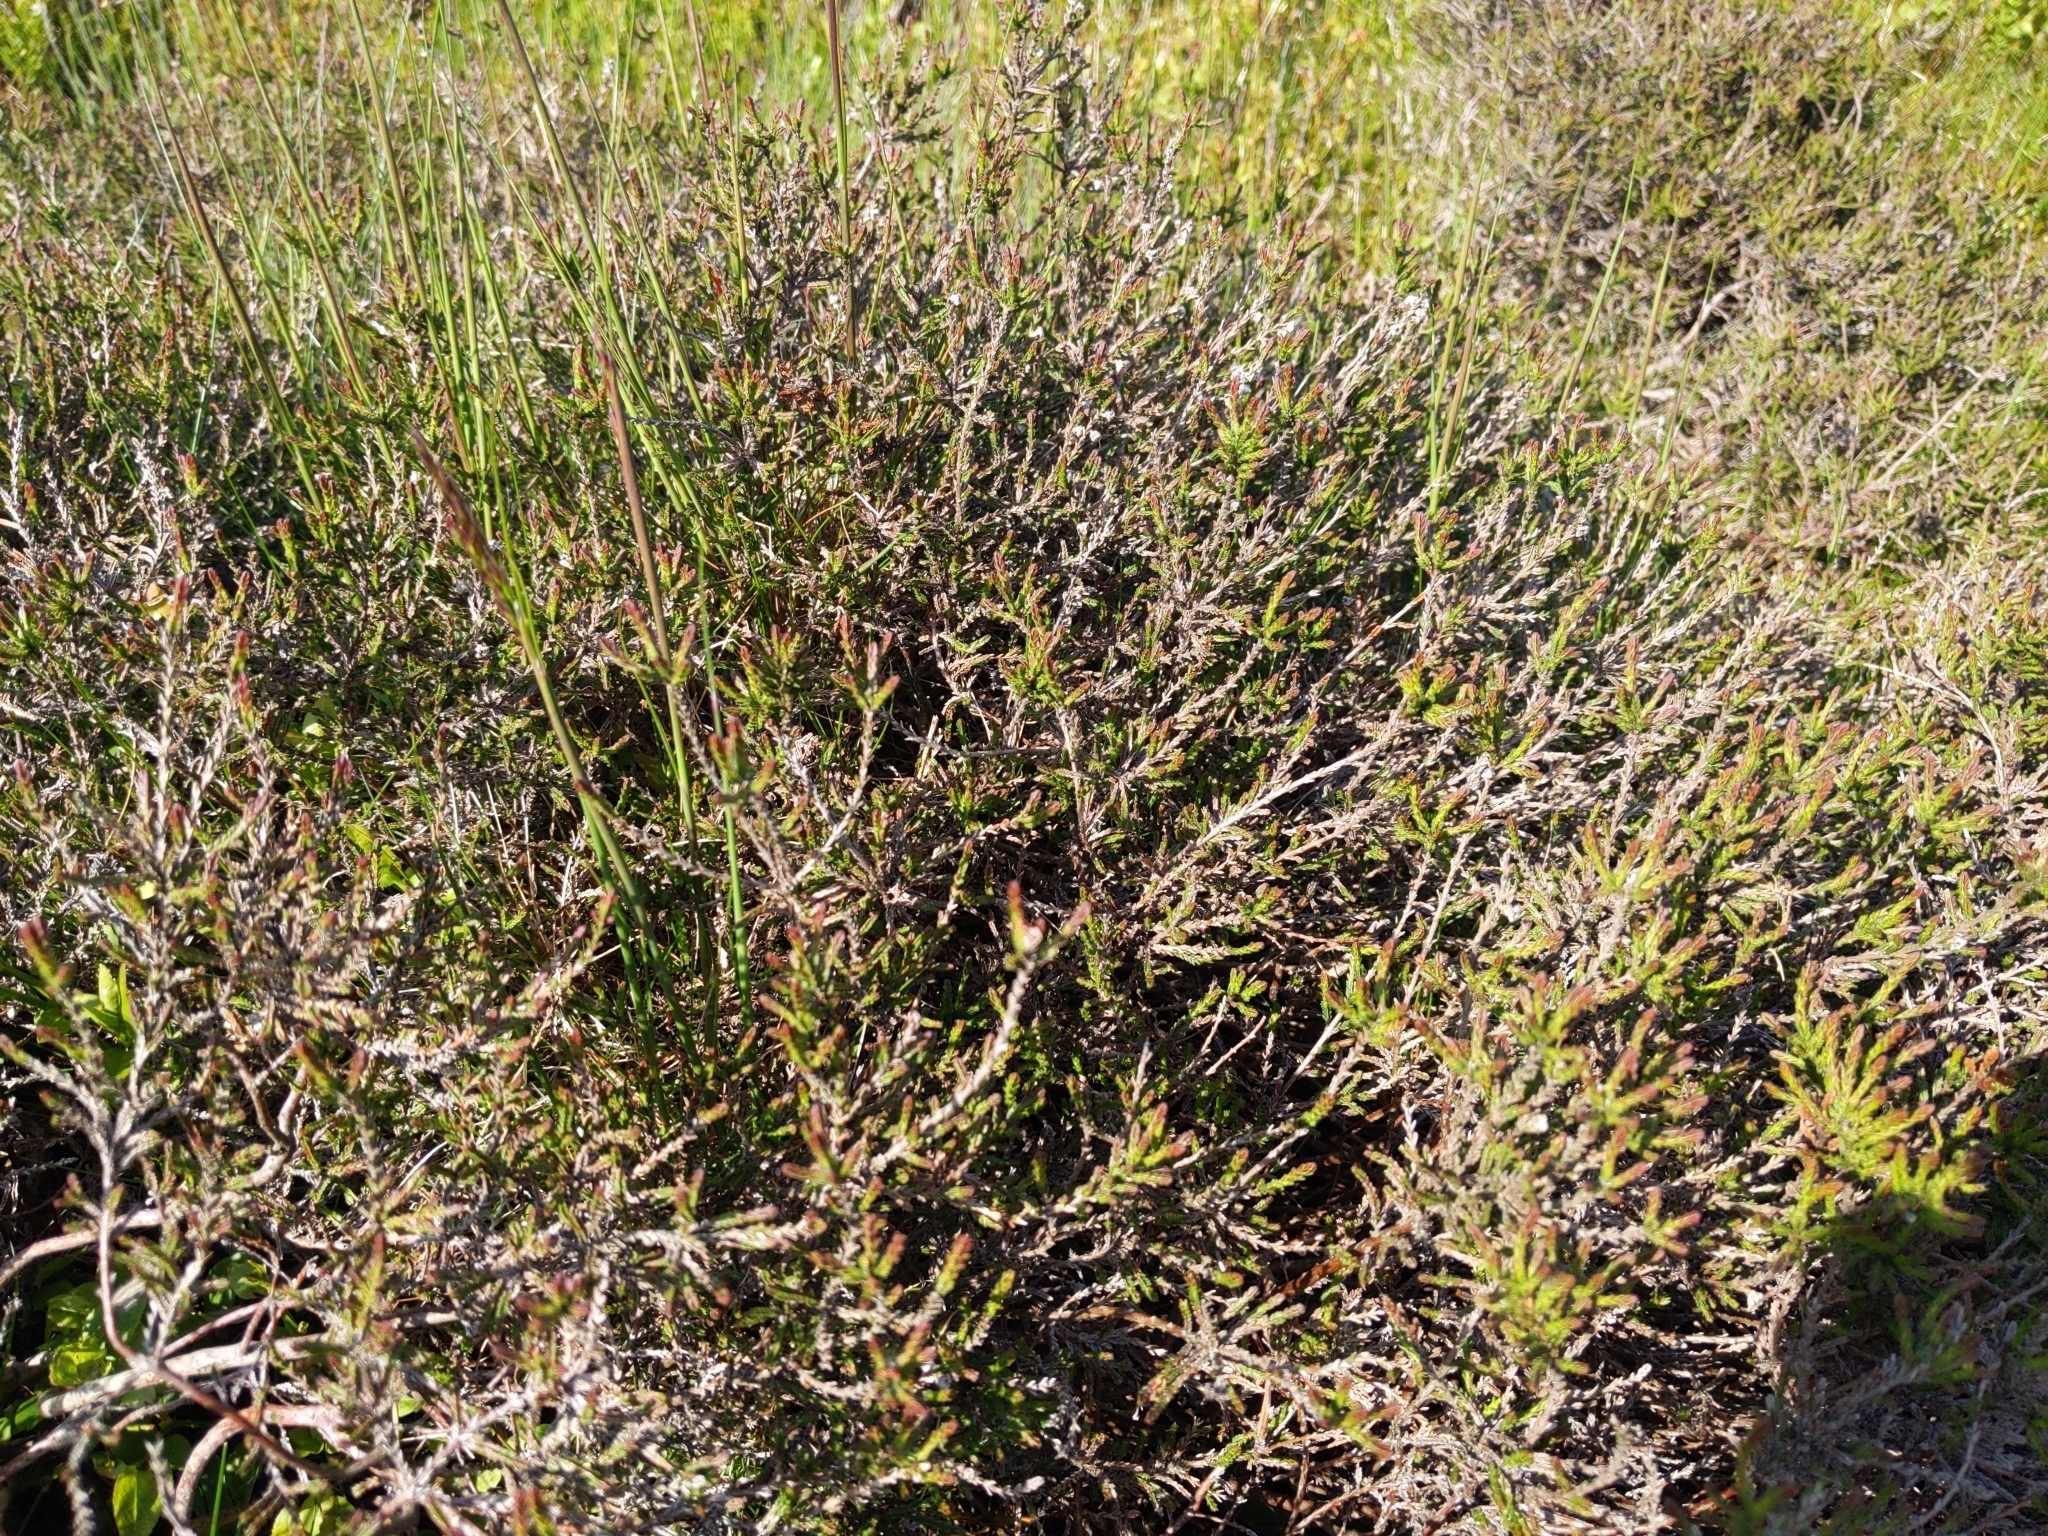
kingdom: Plantae
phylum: Tracheophyta
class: Magnoliopsida
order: Ericales
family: Ericaceae
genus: Calluna
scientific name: Calluna vulgaris
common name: Heather
